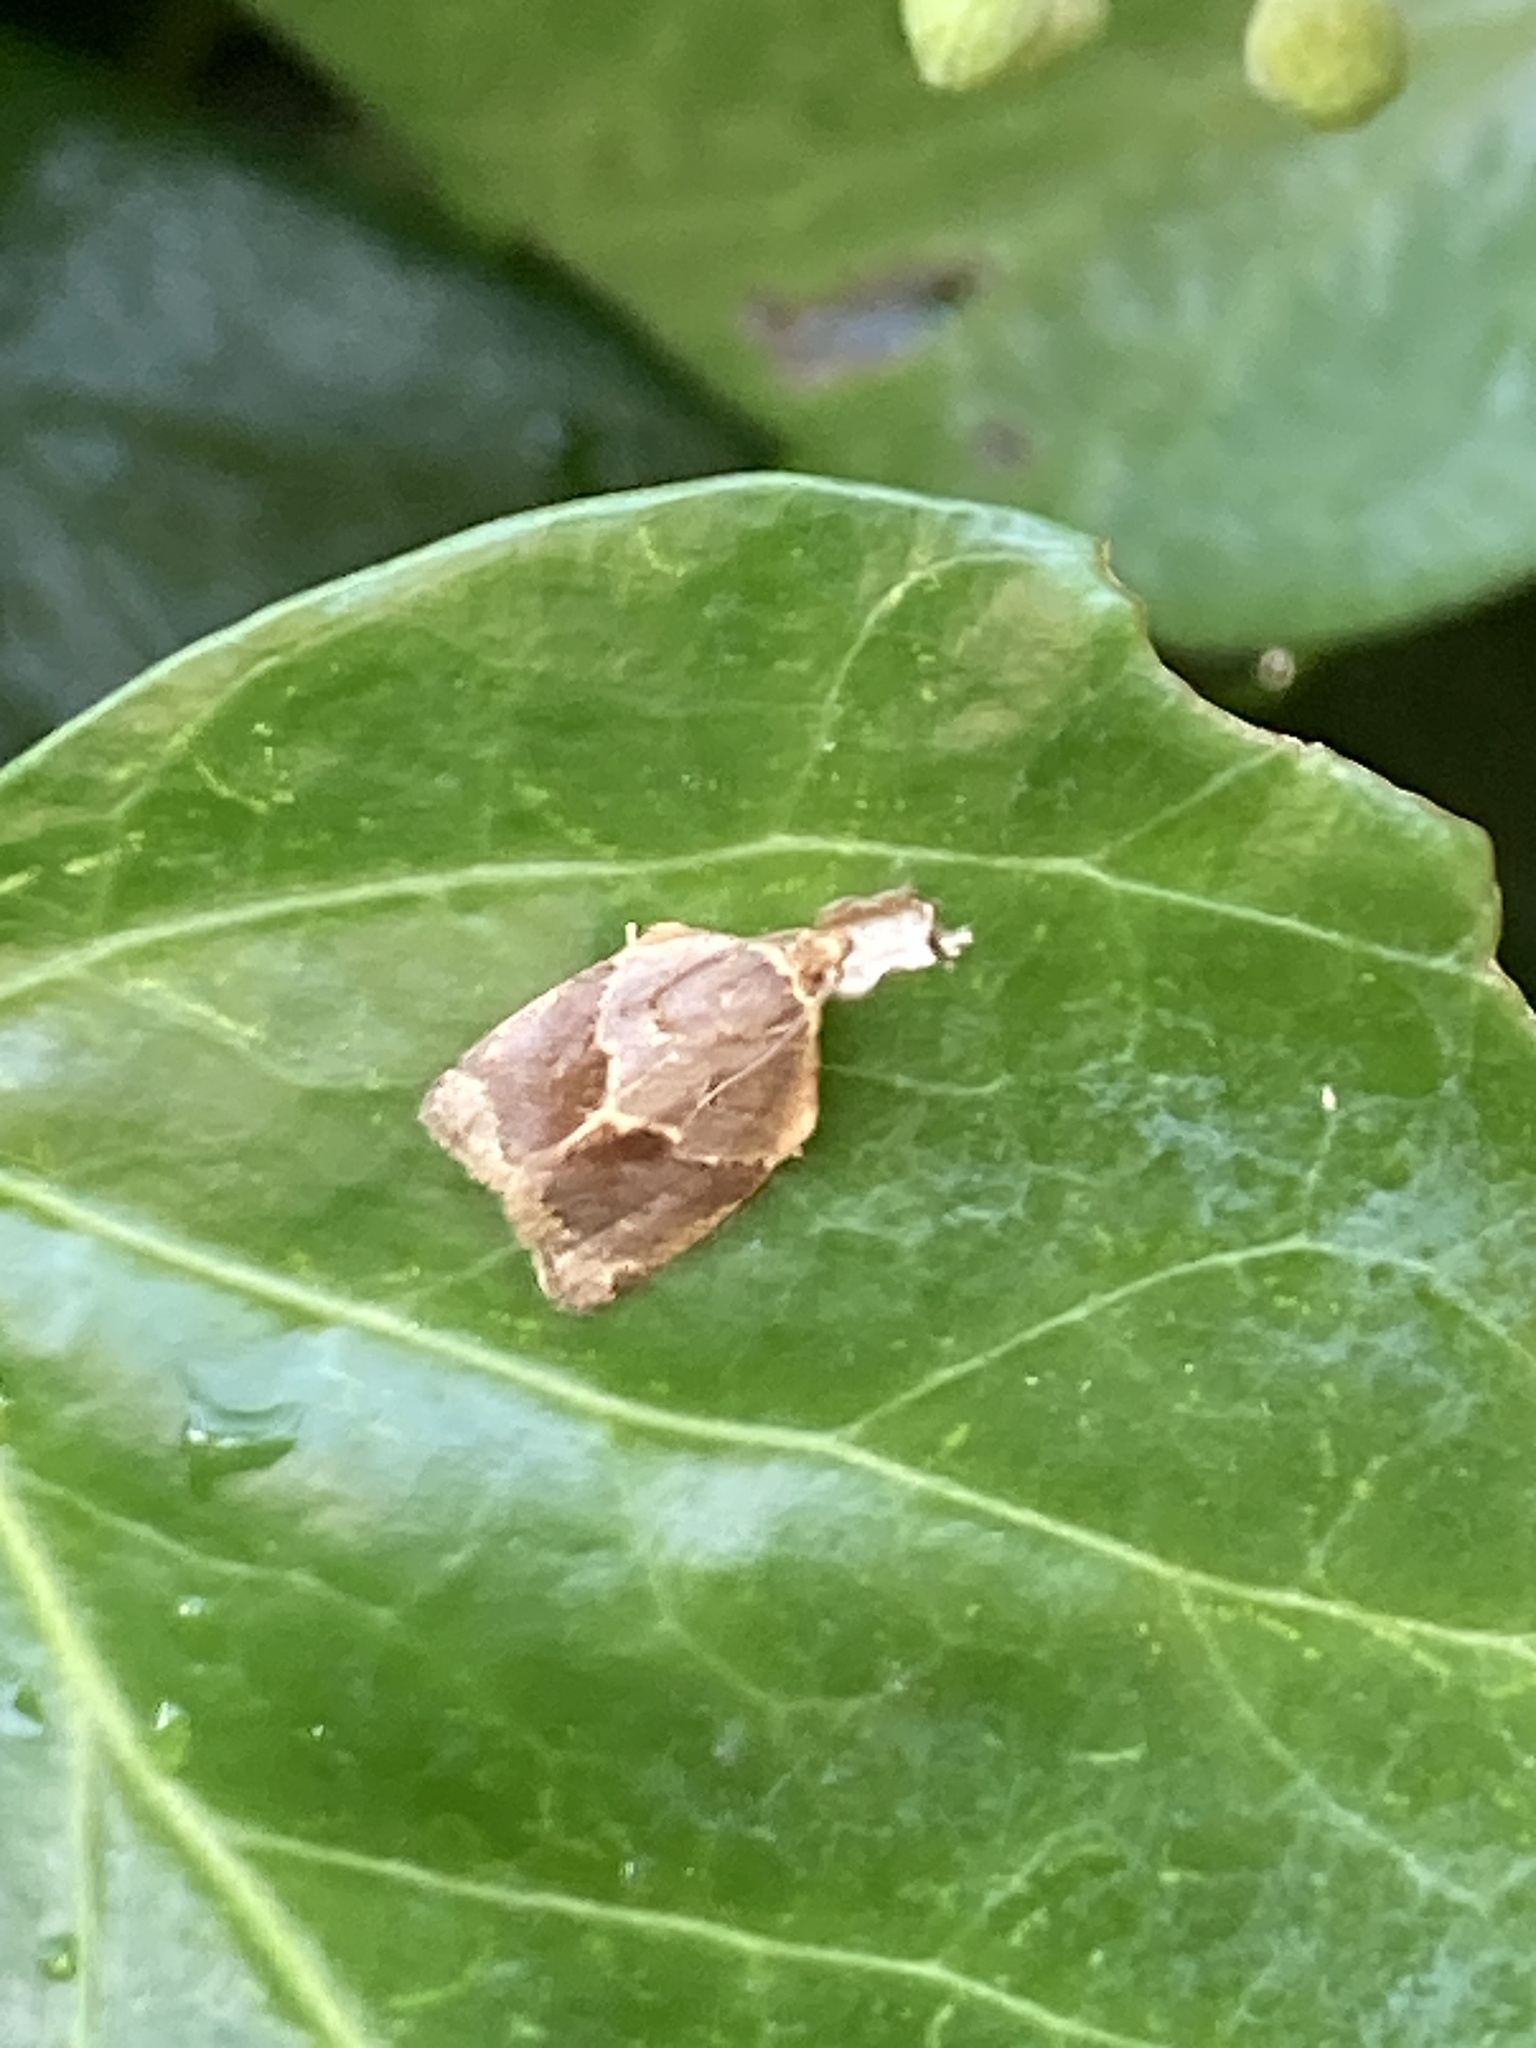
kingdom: Animalia
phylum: Arthropoda
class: Insecta
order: Lepidoptera
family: Tortricidae
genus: Clepsis
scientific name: Clepsis dumicolana
